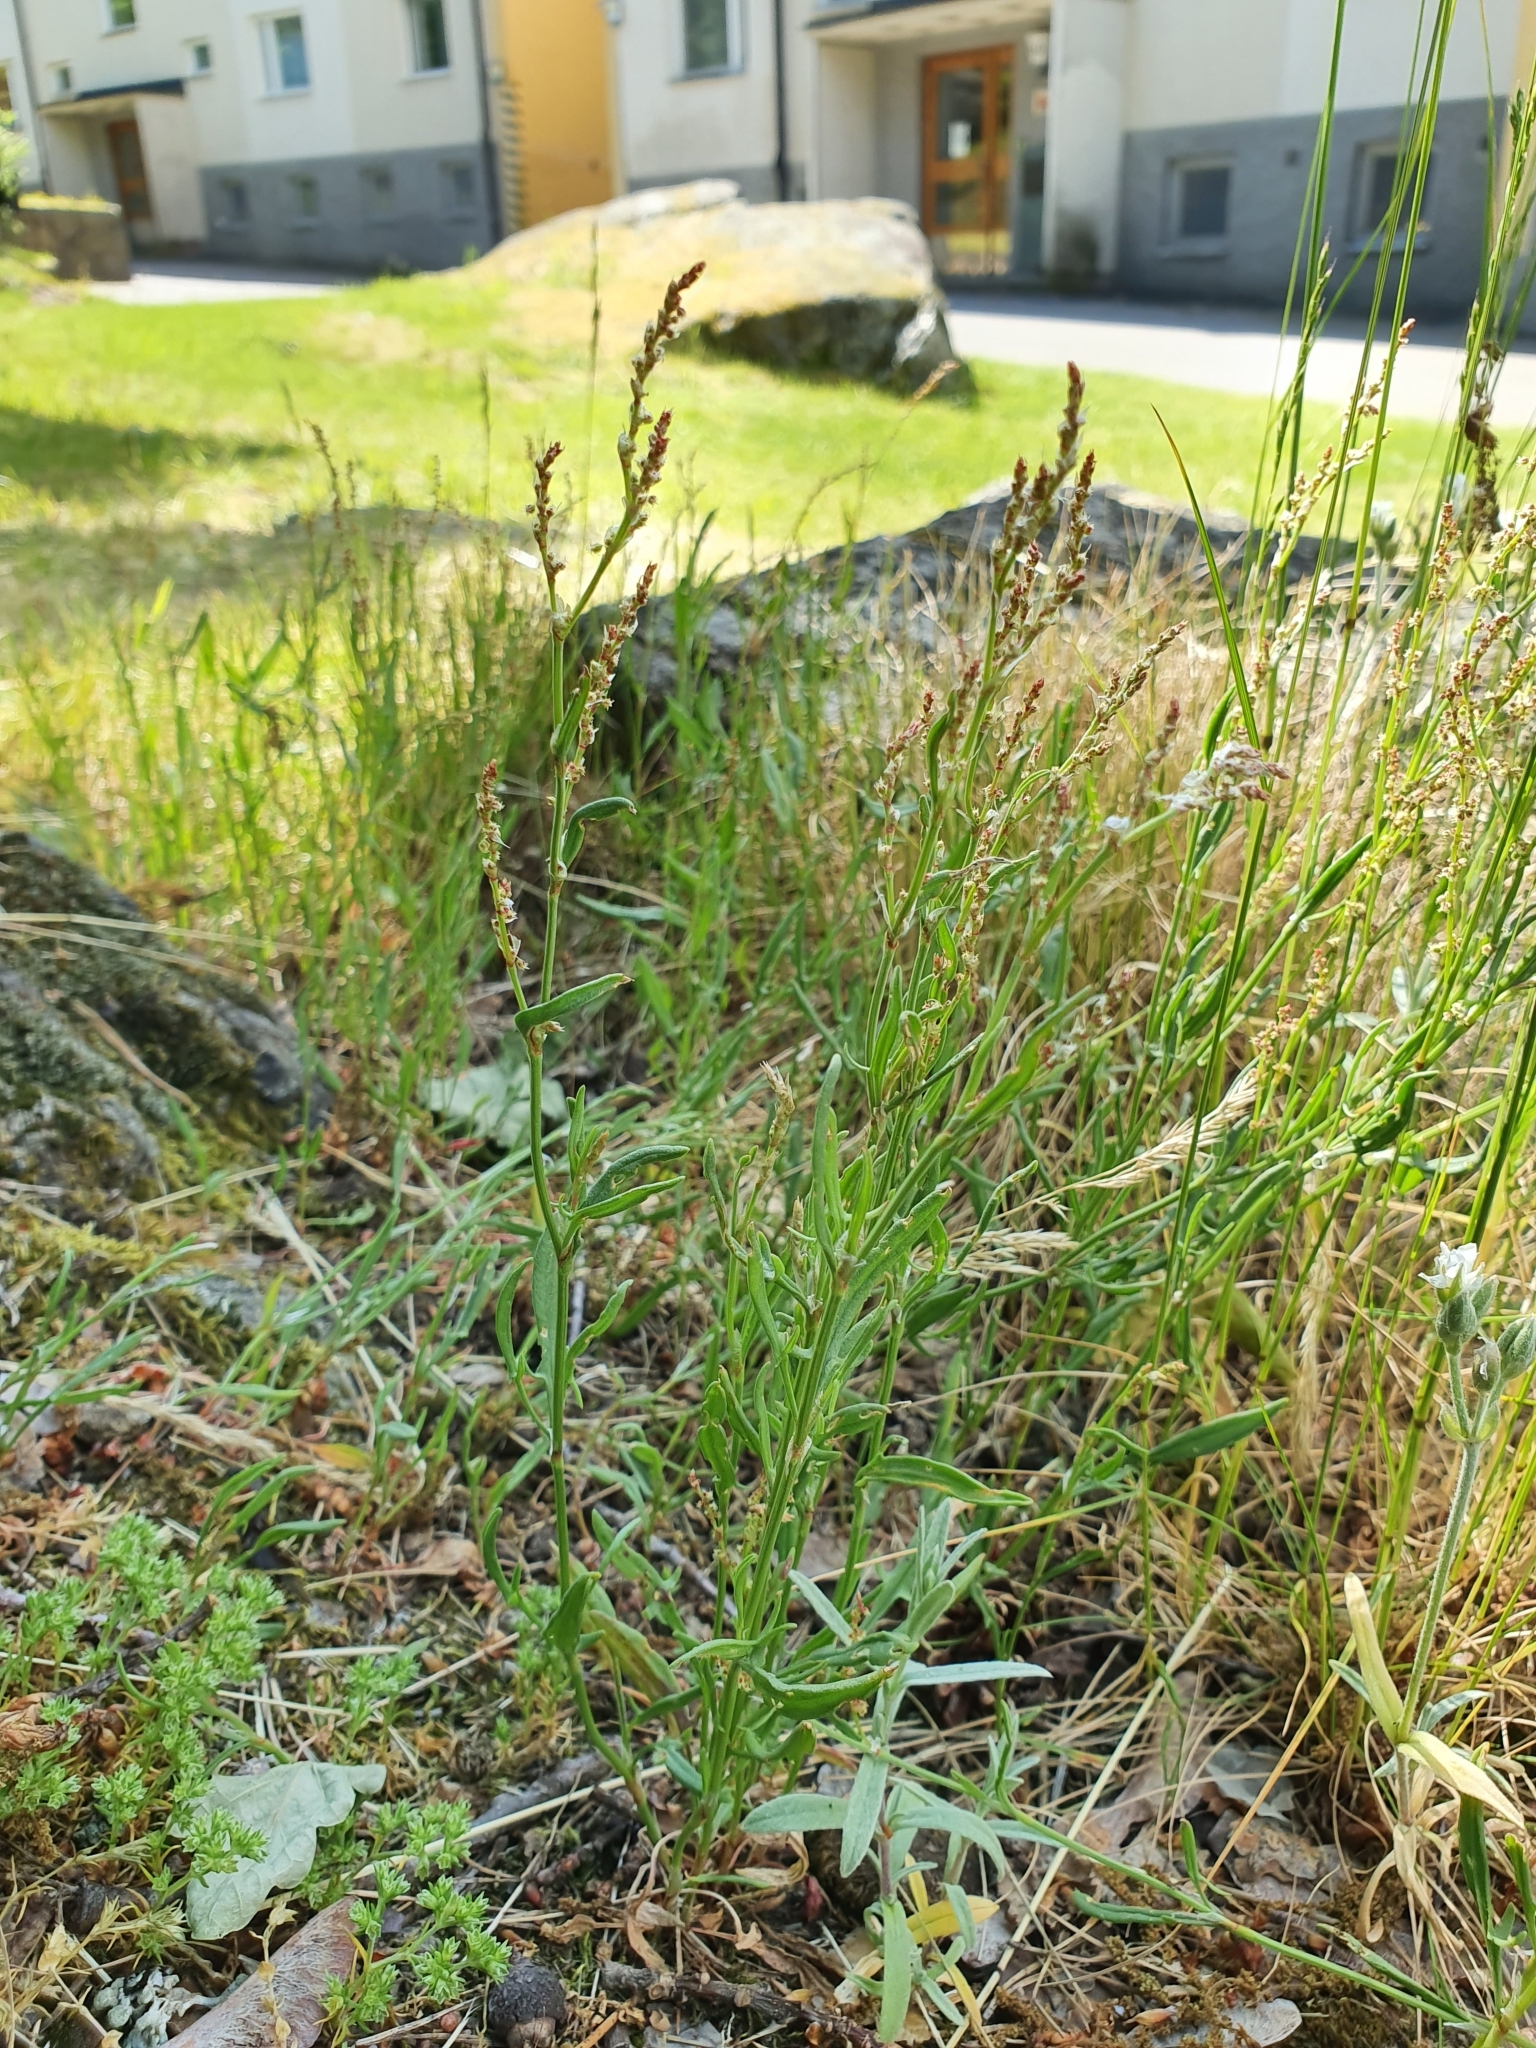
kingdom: Plantae
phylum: Tracheophyta
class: Magnoliopsida
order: Caryophyllales
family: Polygonaceae
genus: Rumex
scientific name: Rumex acetosella
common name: Common sheep sorrel
